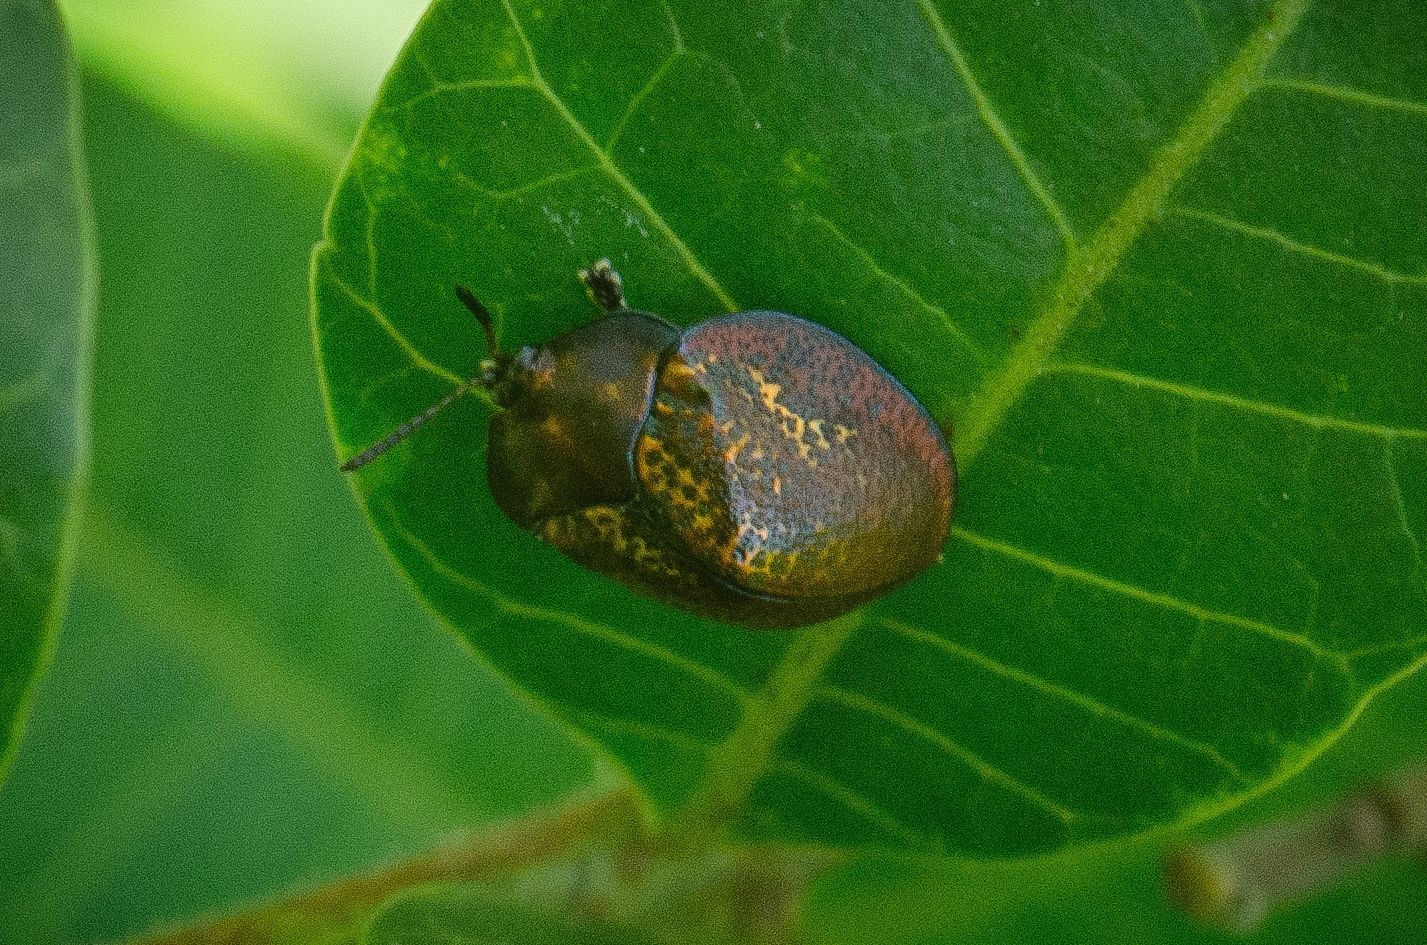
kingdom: Animalia
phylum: Arthropoda
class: Insecta
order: Coleoptera
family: Chrysomelidae
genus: Chelymorpha
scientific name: Chelymorpha inflata
